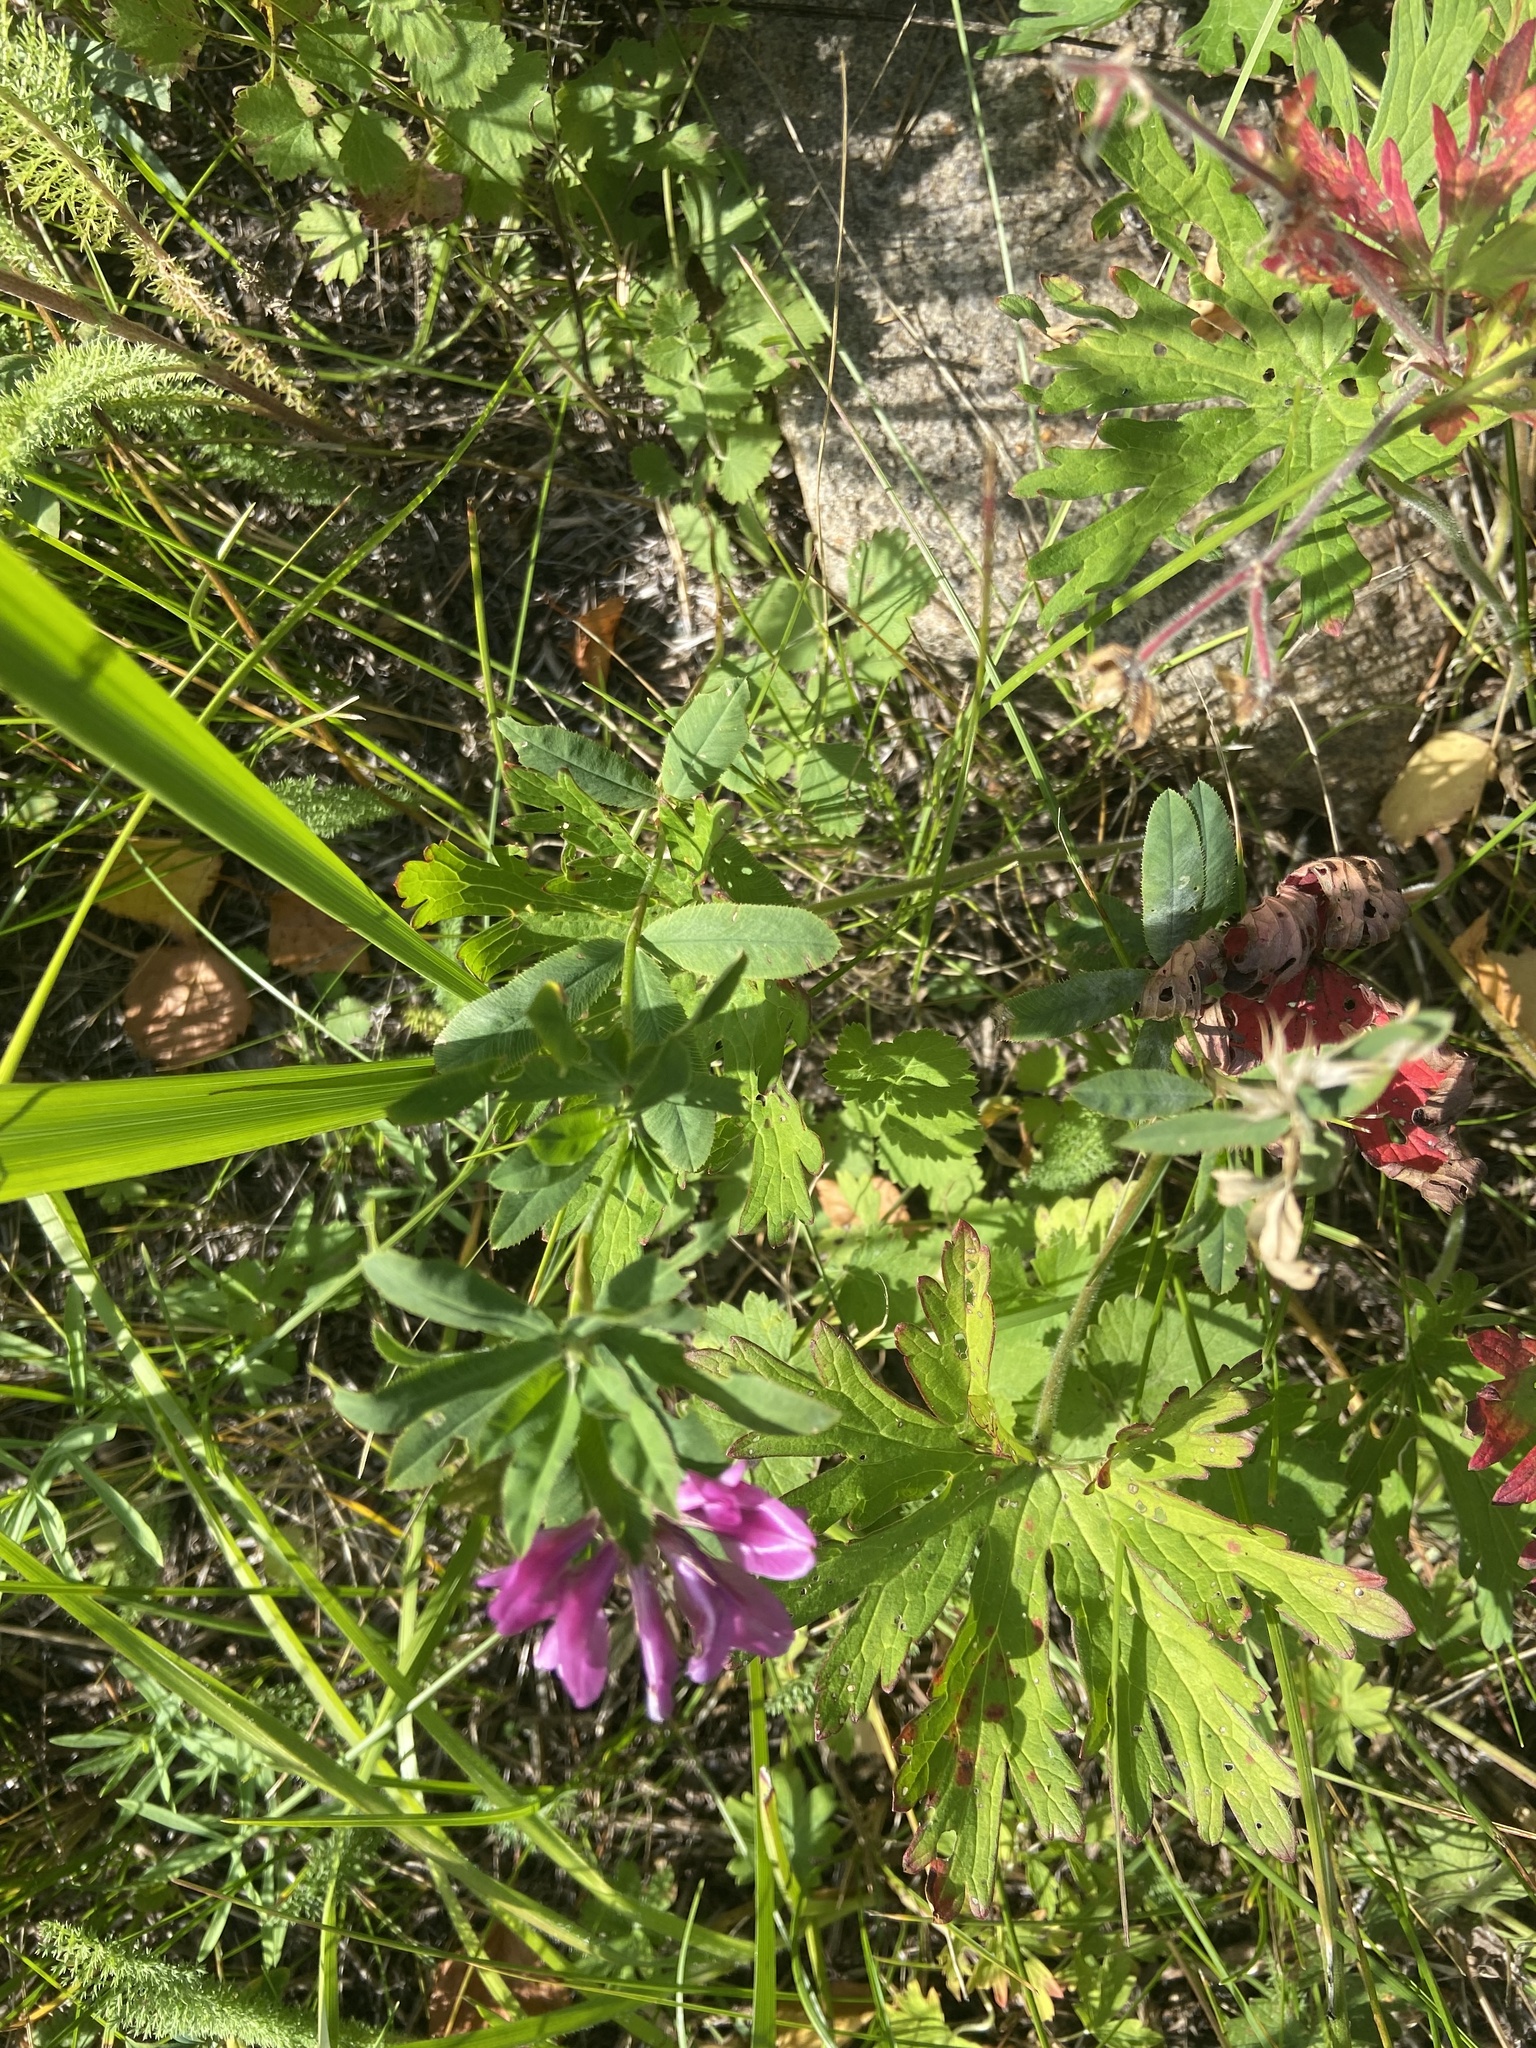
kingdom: Plantae
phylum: Tracheophyta
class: Magnoliopsida
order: Fabales
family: Fabaceae
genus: Trifolium
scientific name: Trifolium lupinaster
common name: Lupine clover
